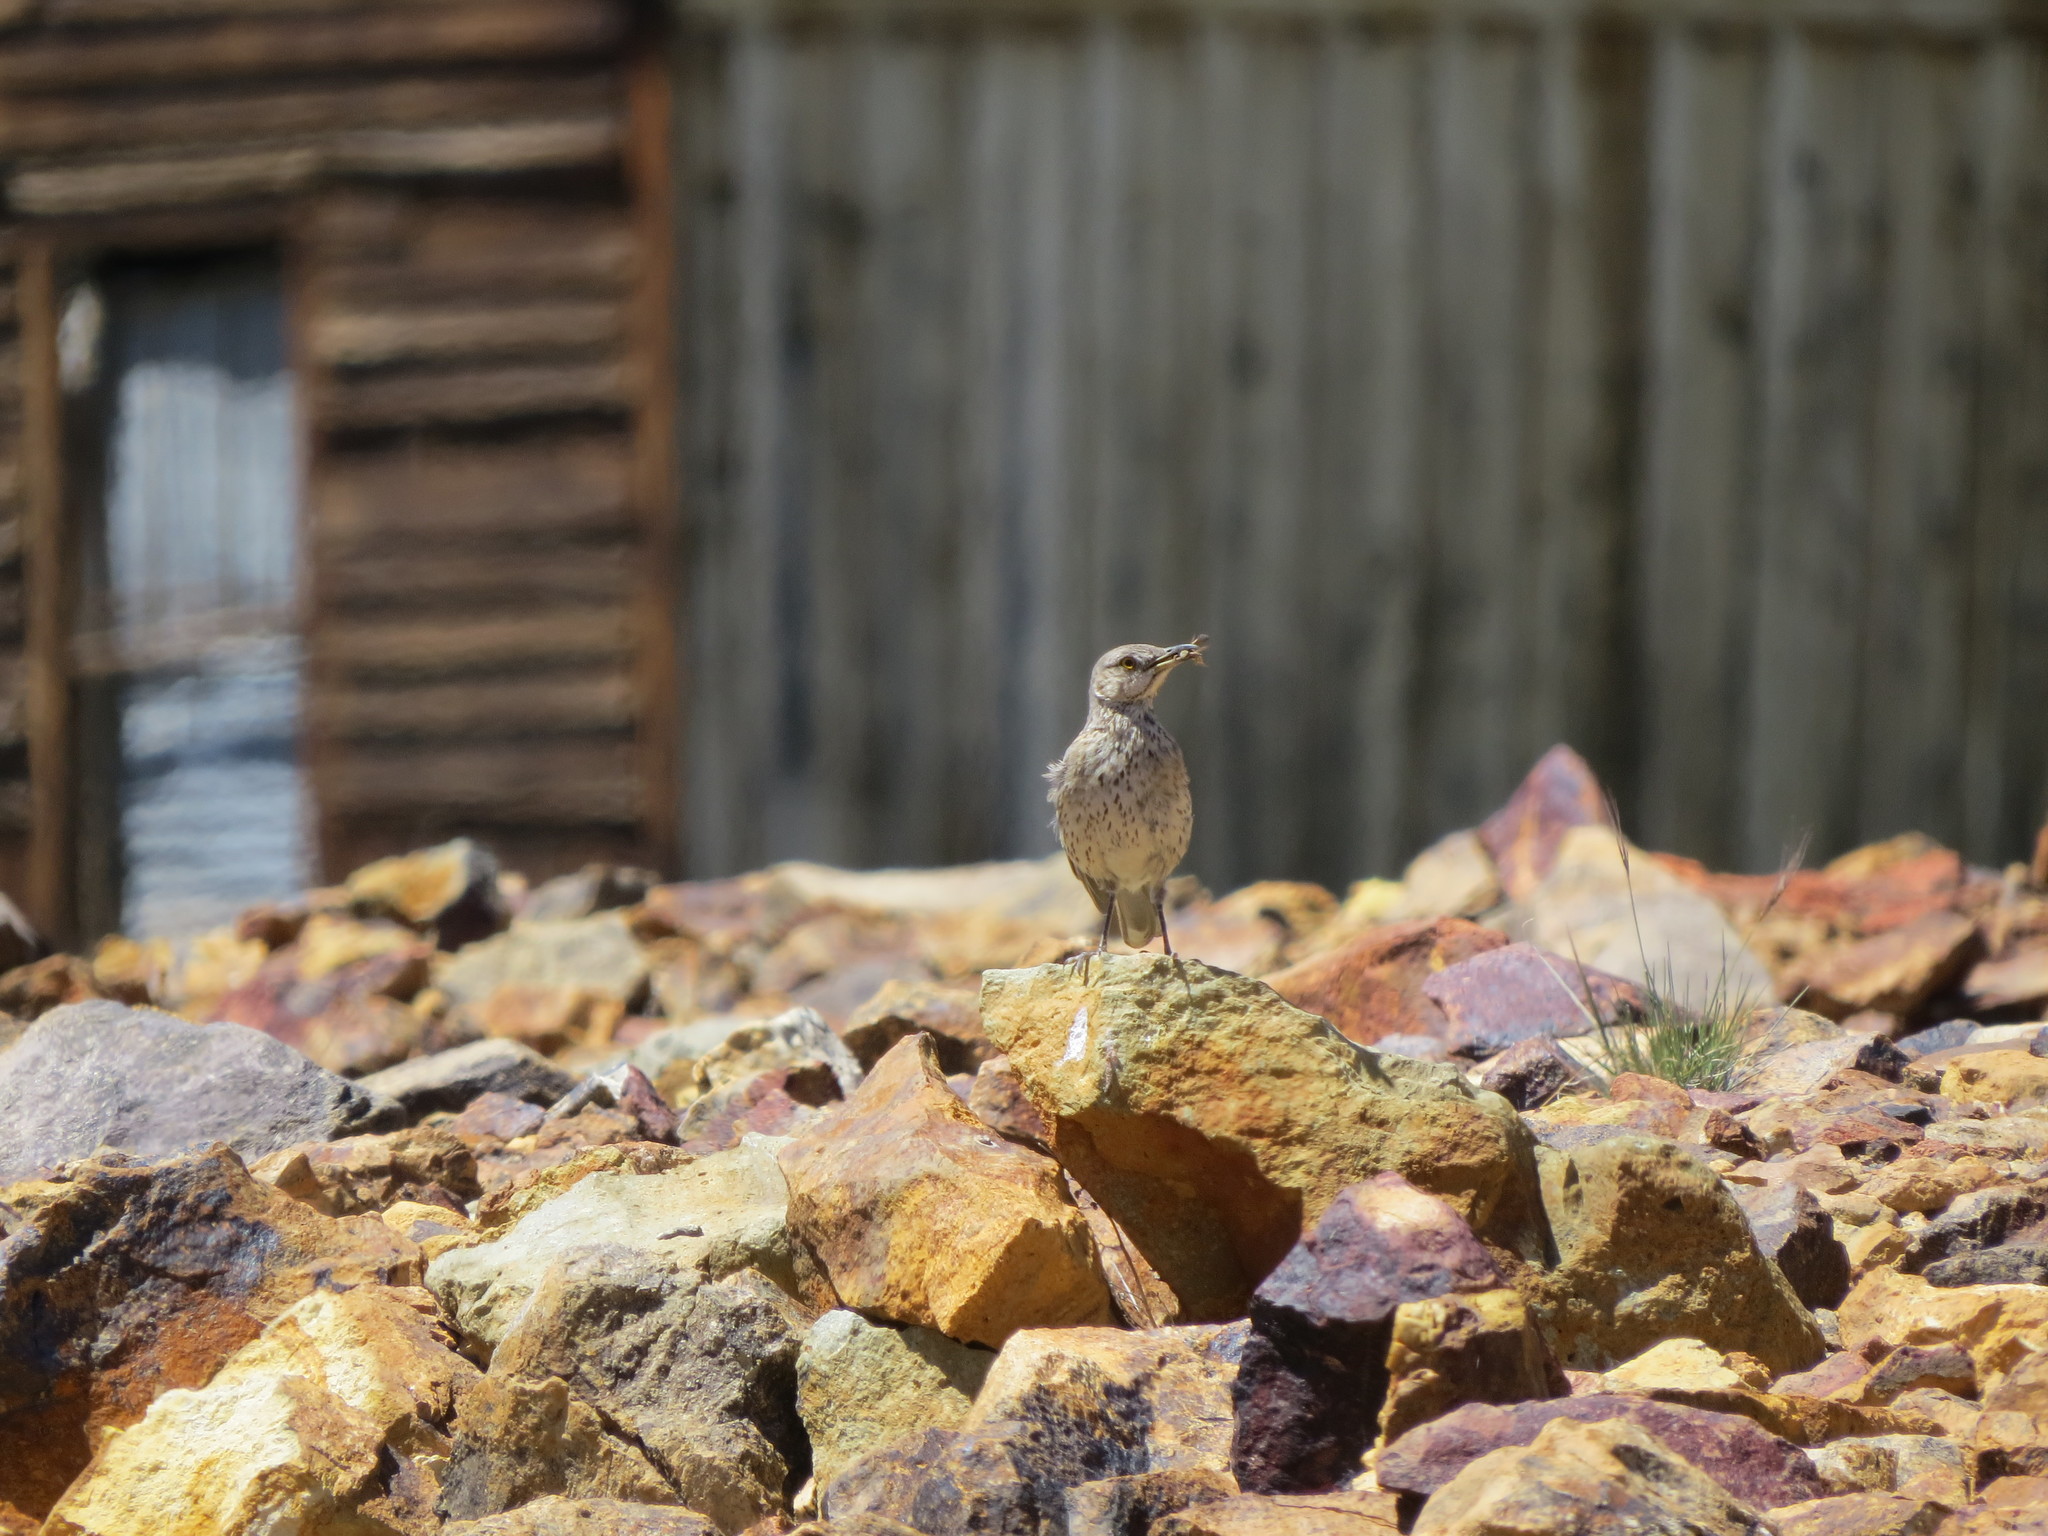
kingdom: Animalia
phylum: Chordata
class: Aves
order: Passeriformes
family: Mimidae
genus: Oreoscoptes
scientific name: Oreoscoptes montanus
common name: Sage thrasher
